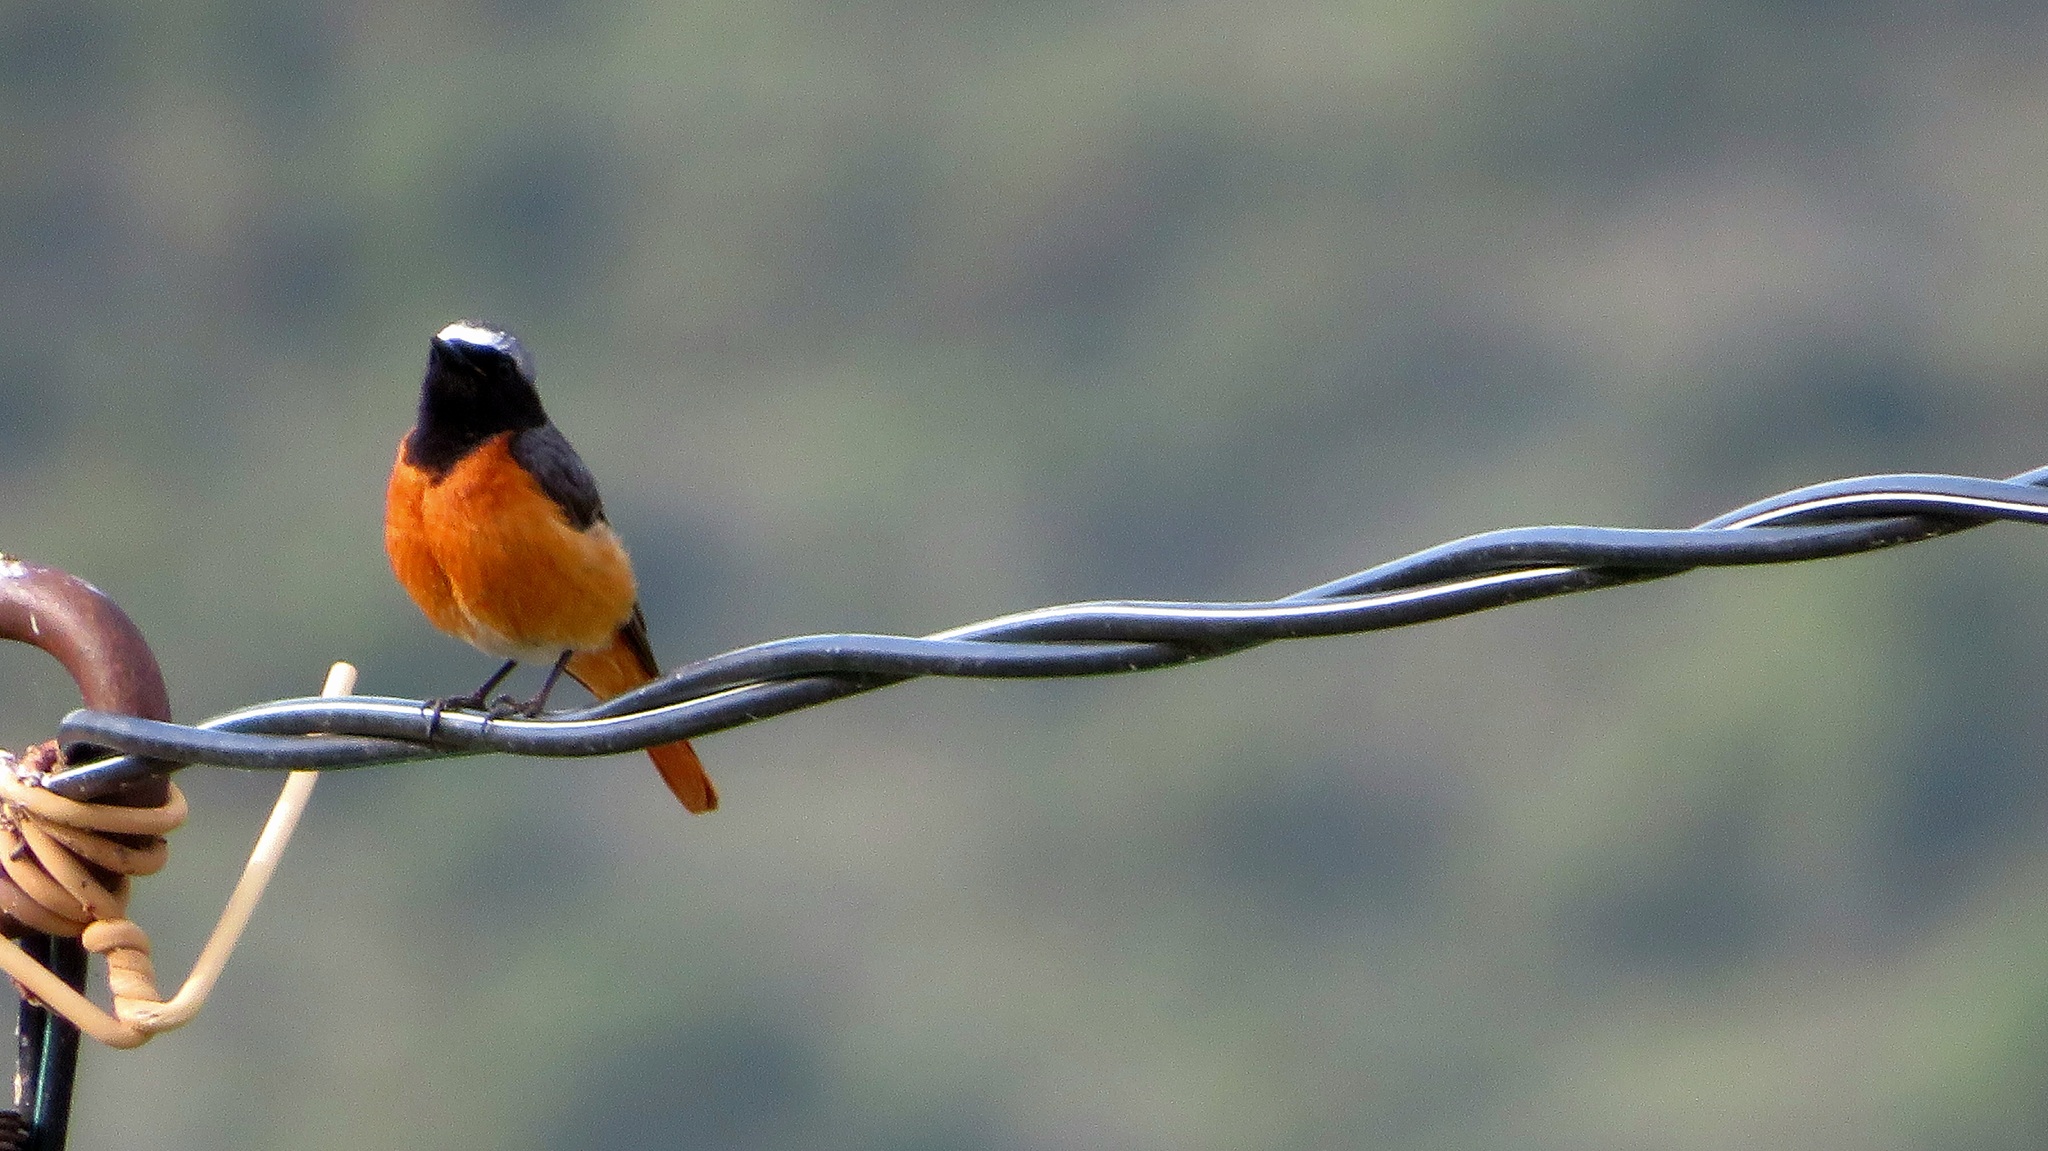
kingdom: Animalia
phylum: Chordata
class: Aves
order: Passeriformes
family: Muscicapidae
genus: Phoenicurus
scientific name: Phoenicurus phoenicurus
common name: Common redstart
